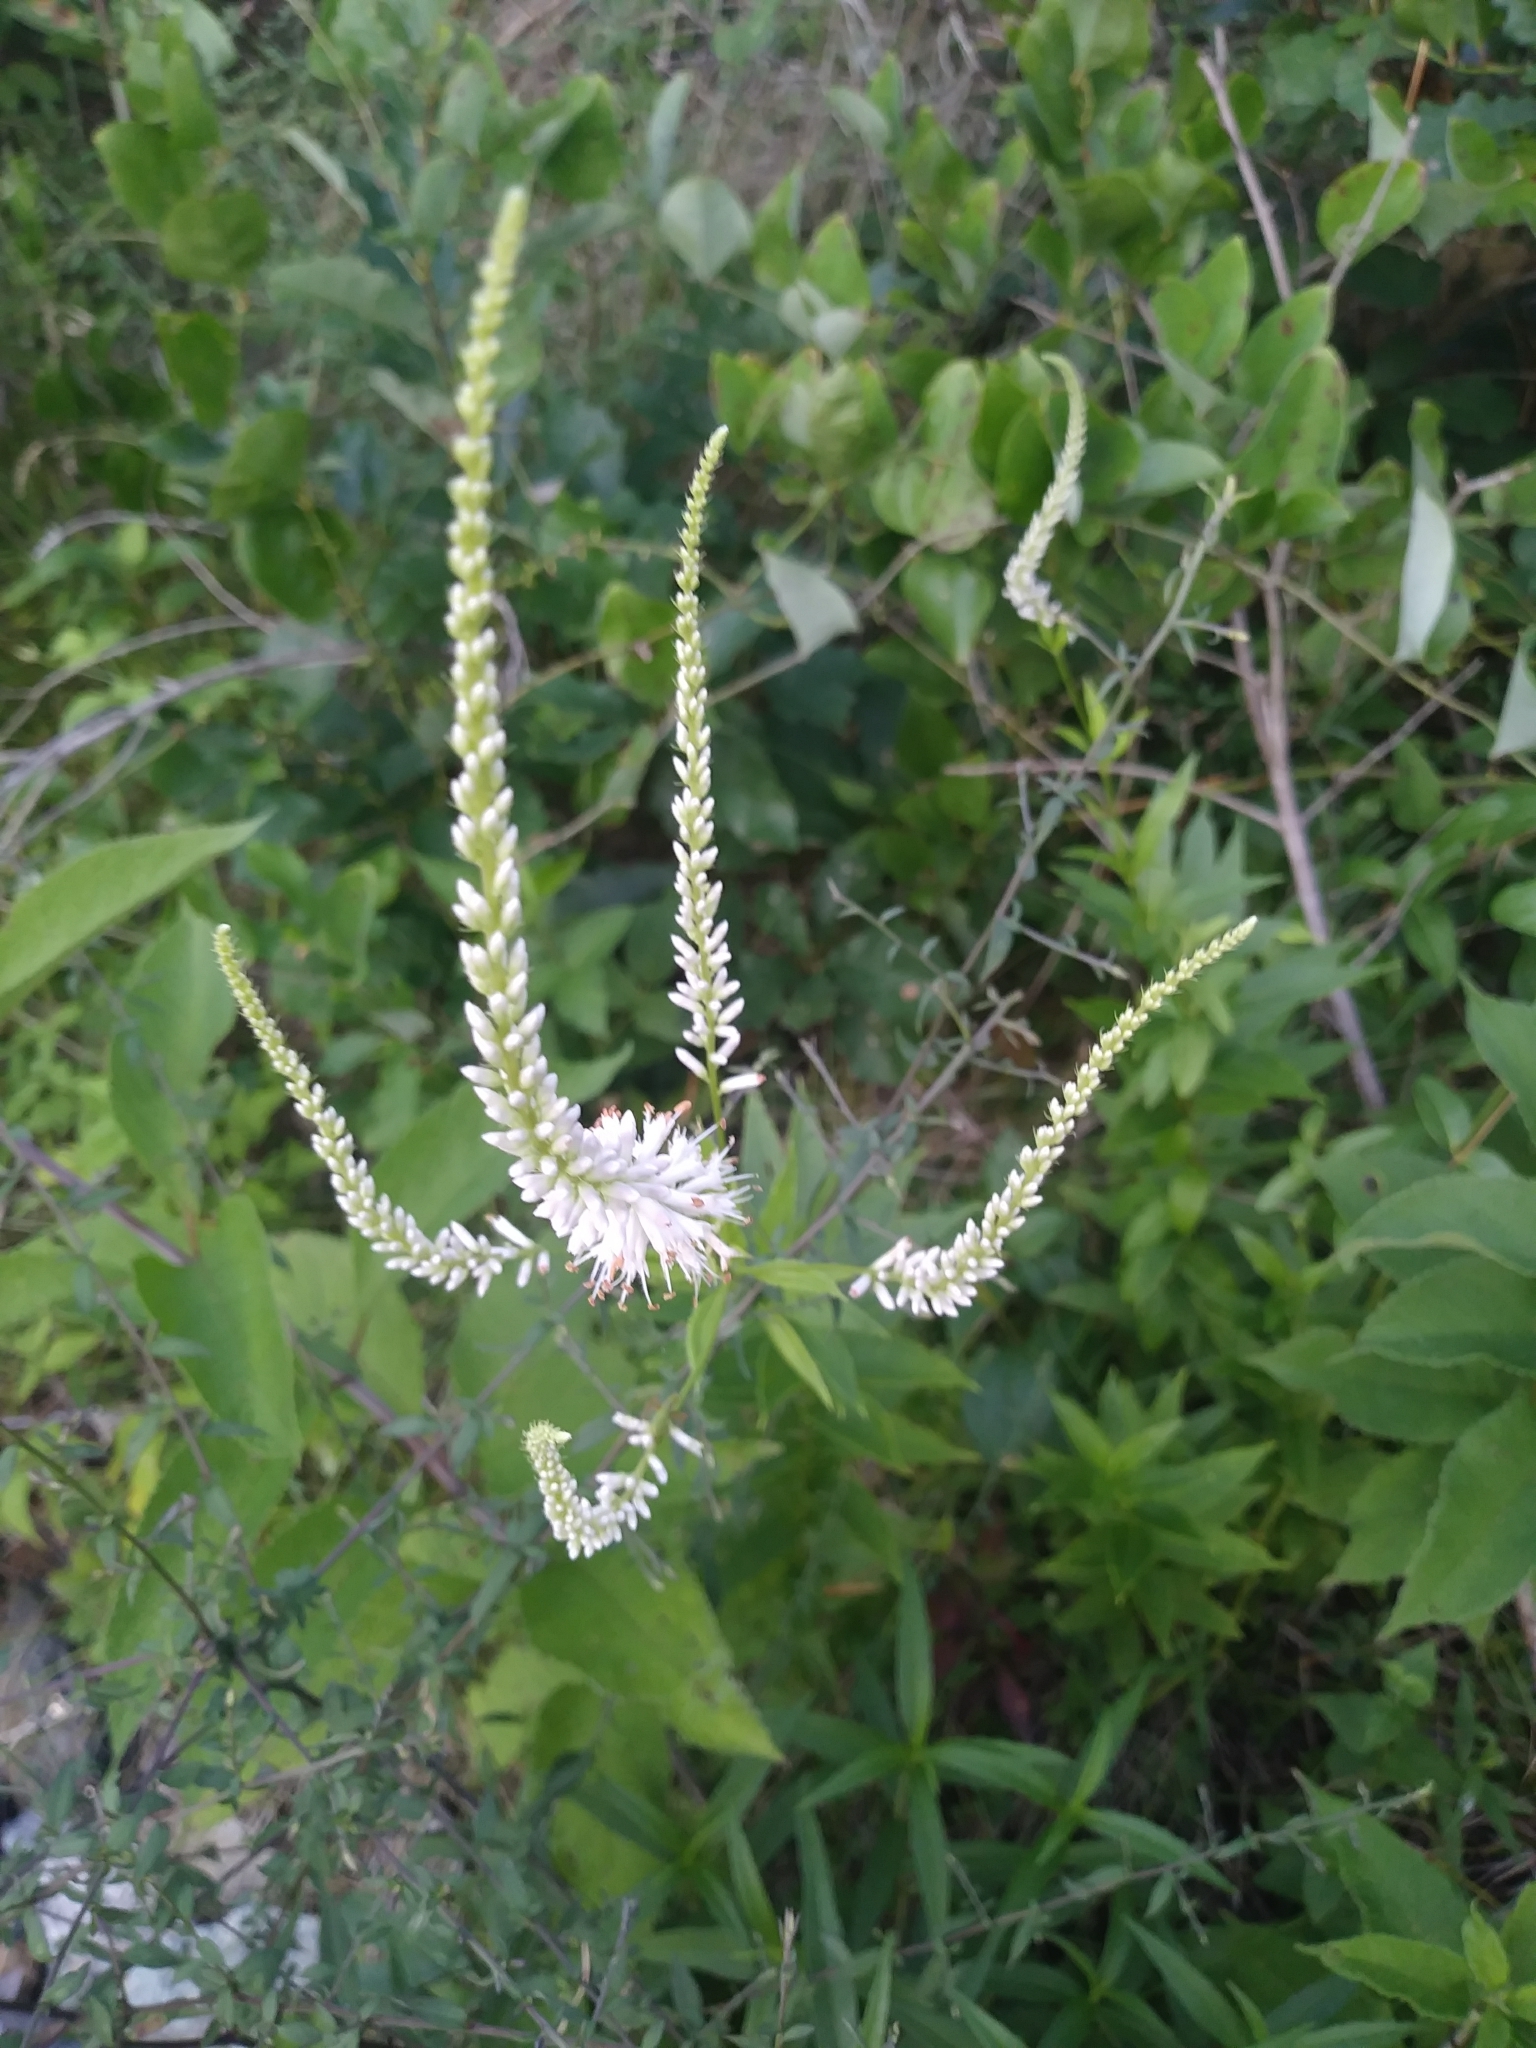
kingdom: Plantae
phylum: Tracheophyta
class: Magnoliopsida
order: Lamiales
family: Plantaginaceae
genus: Veronicastrum
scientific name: Veronicastrum virginicum
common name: Blackroot
